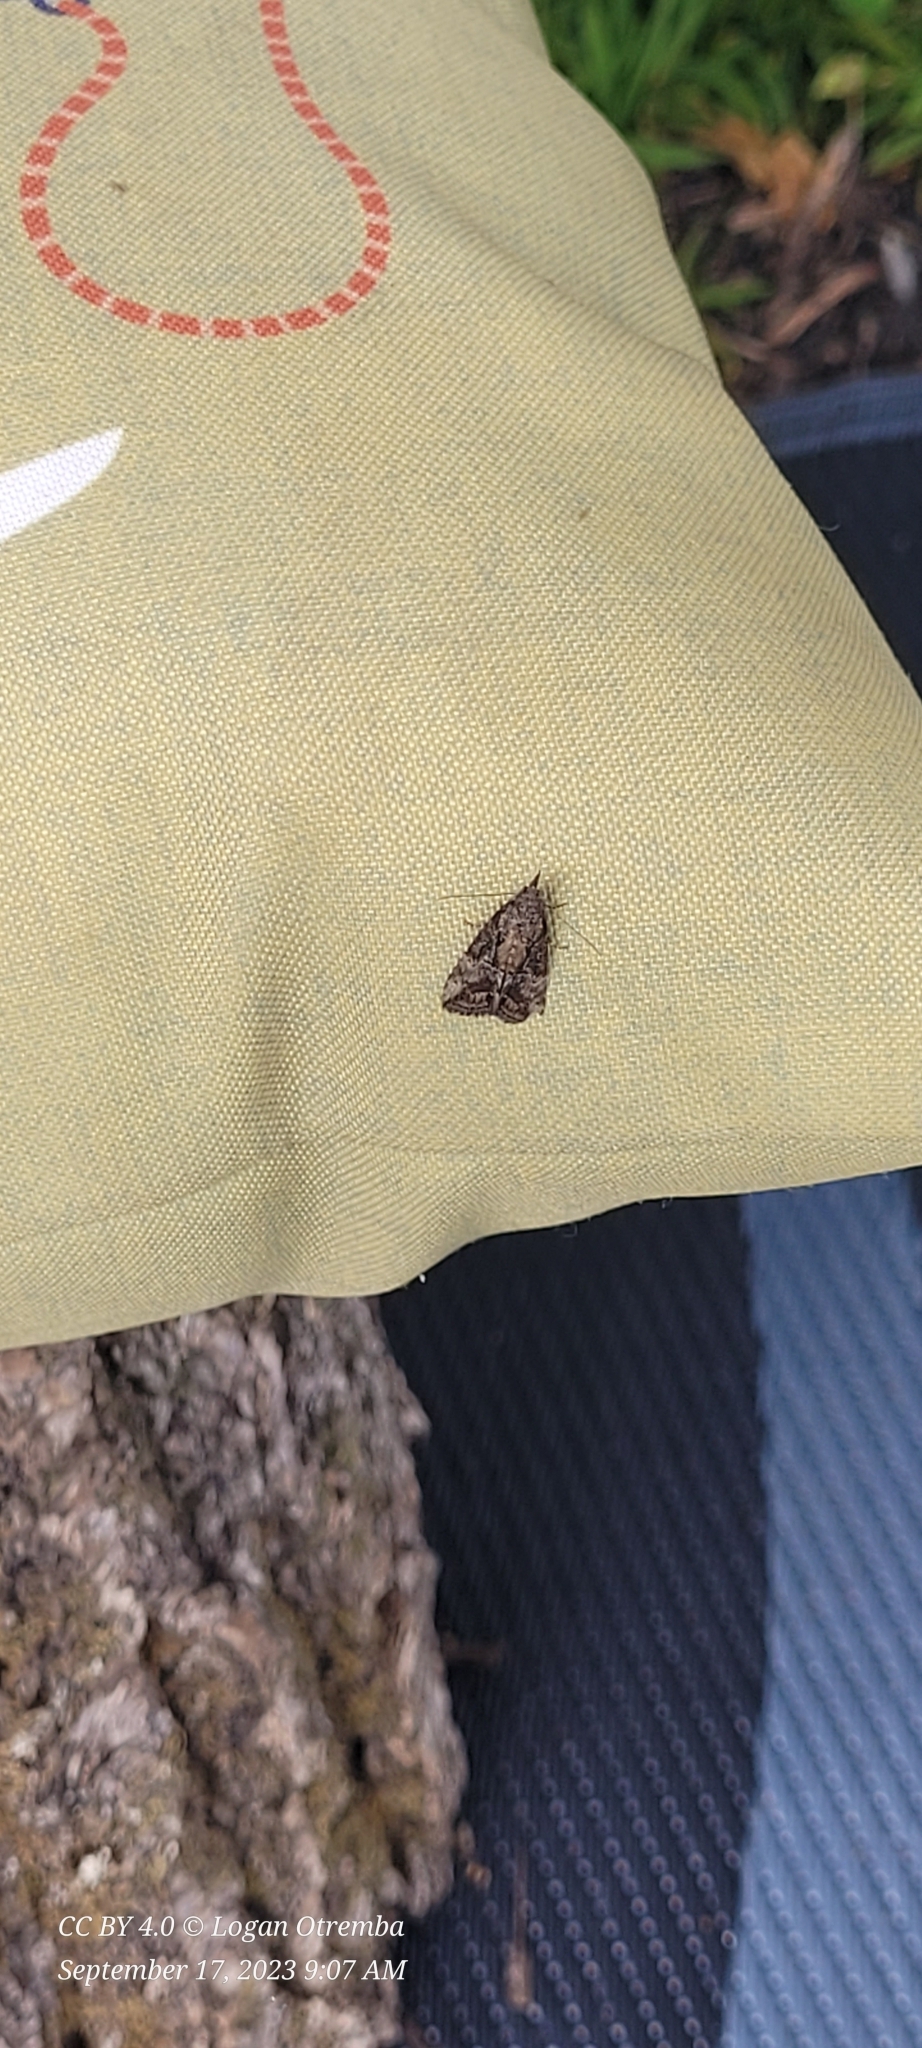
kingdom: Animalia
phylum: Arthropoda
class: Insecta
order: Lepidoptera
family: Erebidae
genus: Hypena
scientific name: Hypena scabra
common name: Green cloverworm
